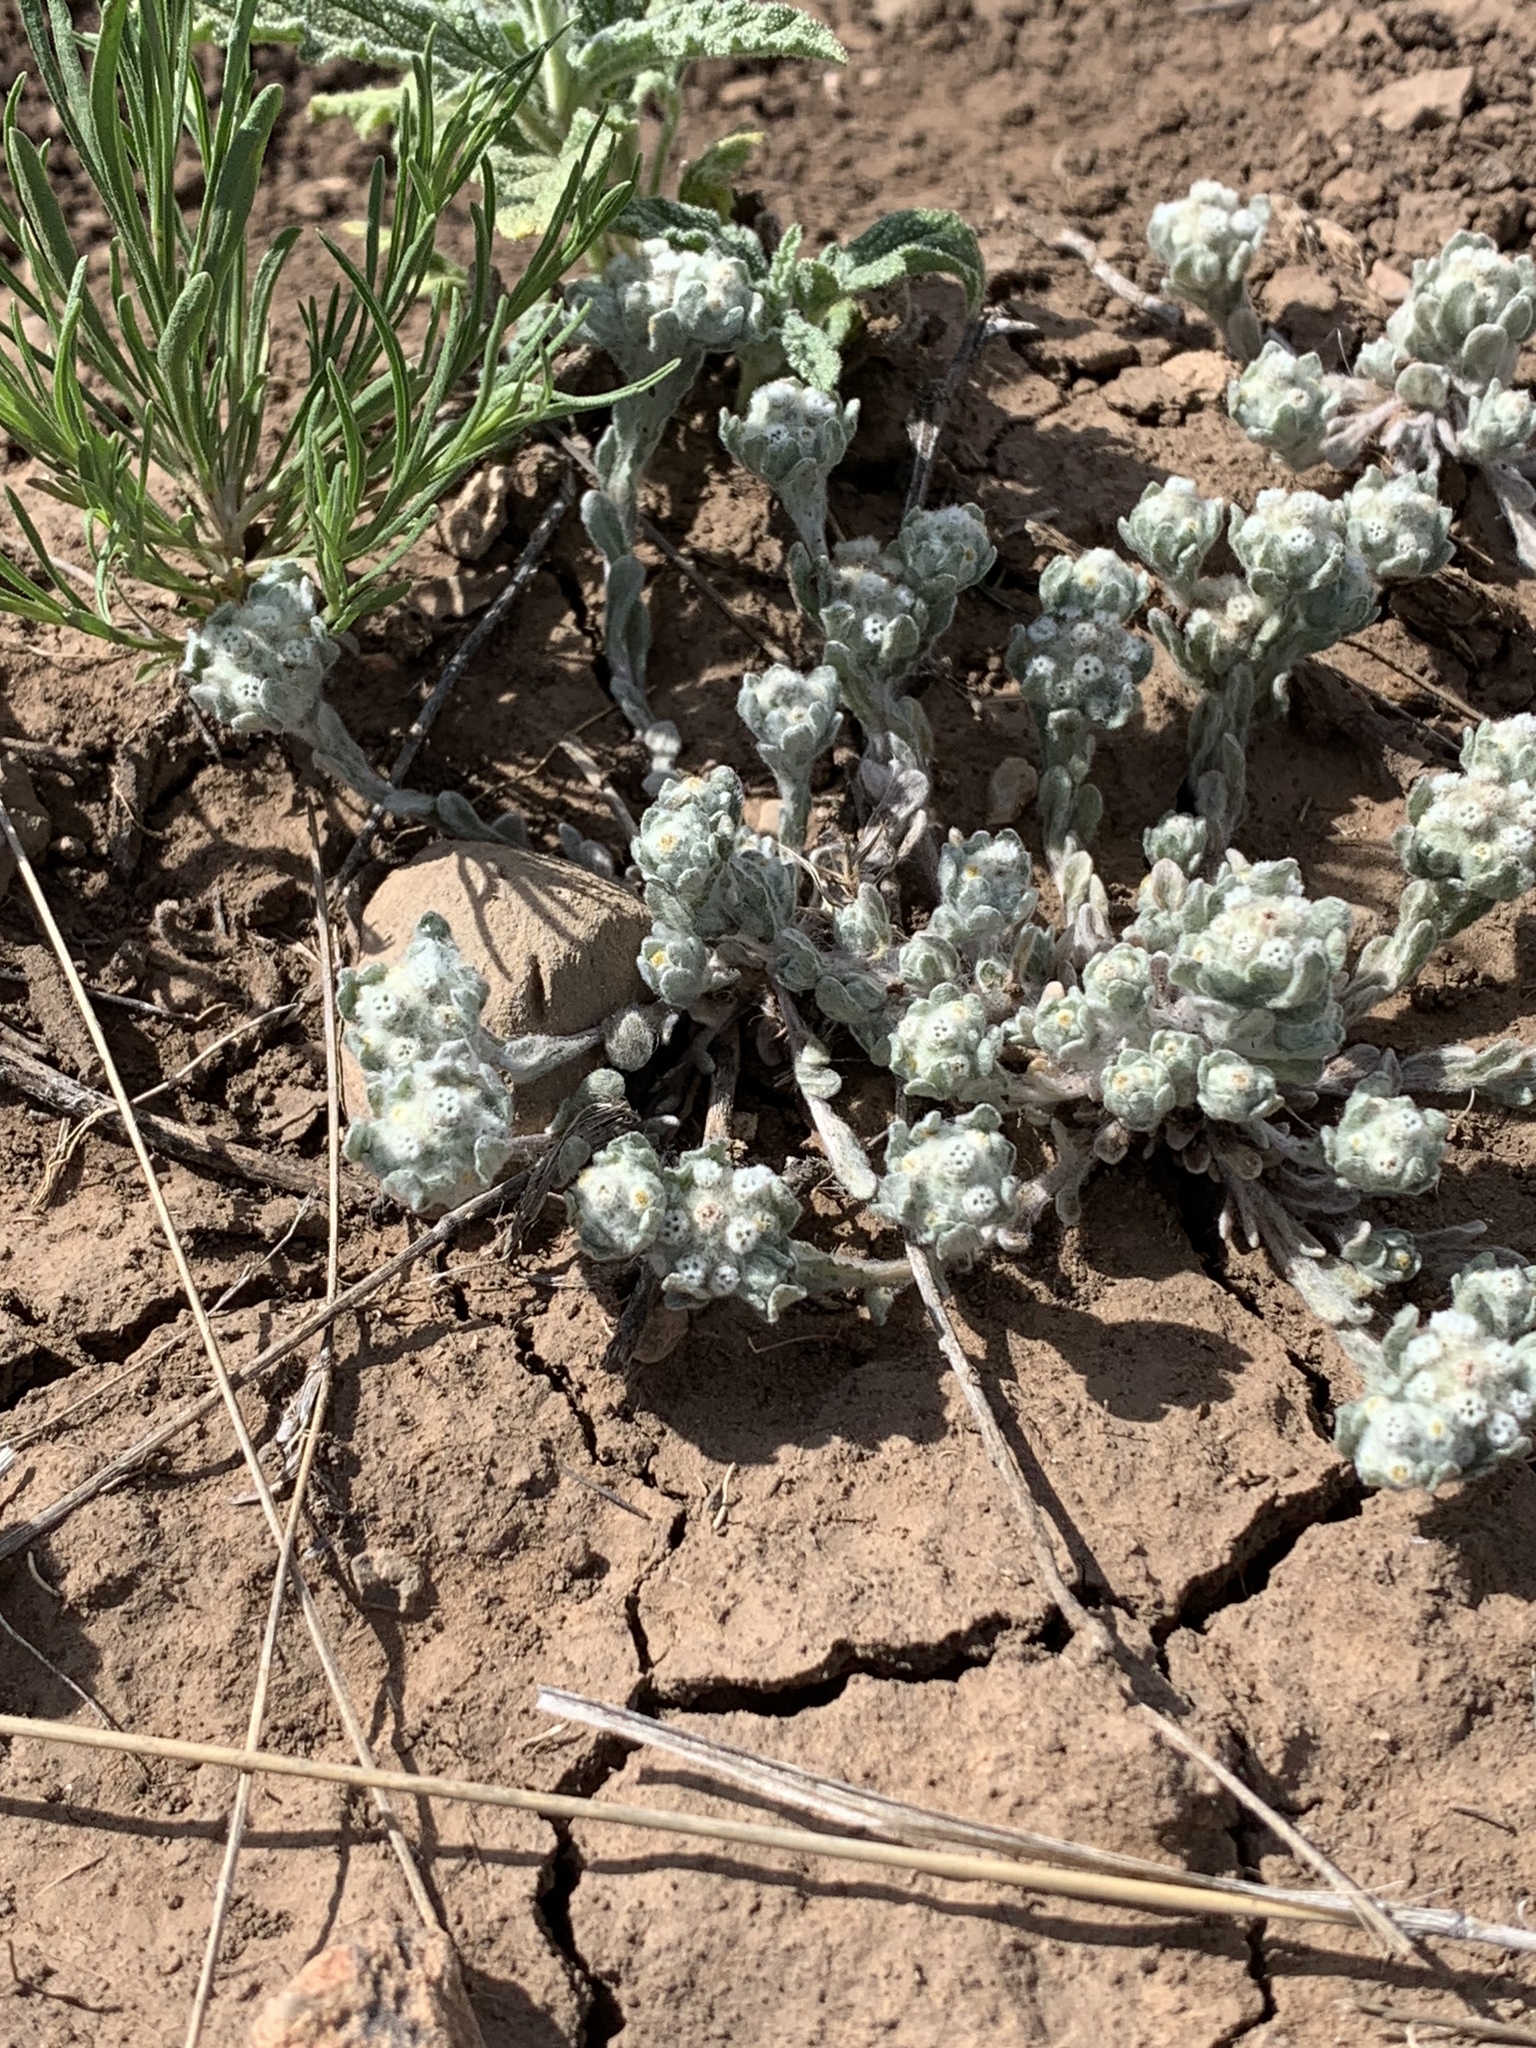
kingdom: Plantae
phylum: Tracheophyta
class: Magnoliopsida
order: Asterales
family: Asteraceae
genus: Diaperia
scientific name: Diaperia verna
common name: Many-stem rabbit-tobacco
